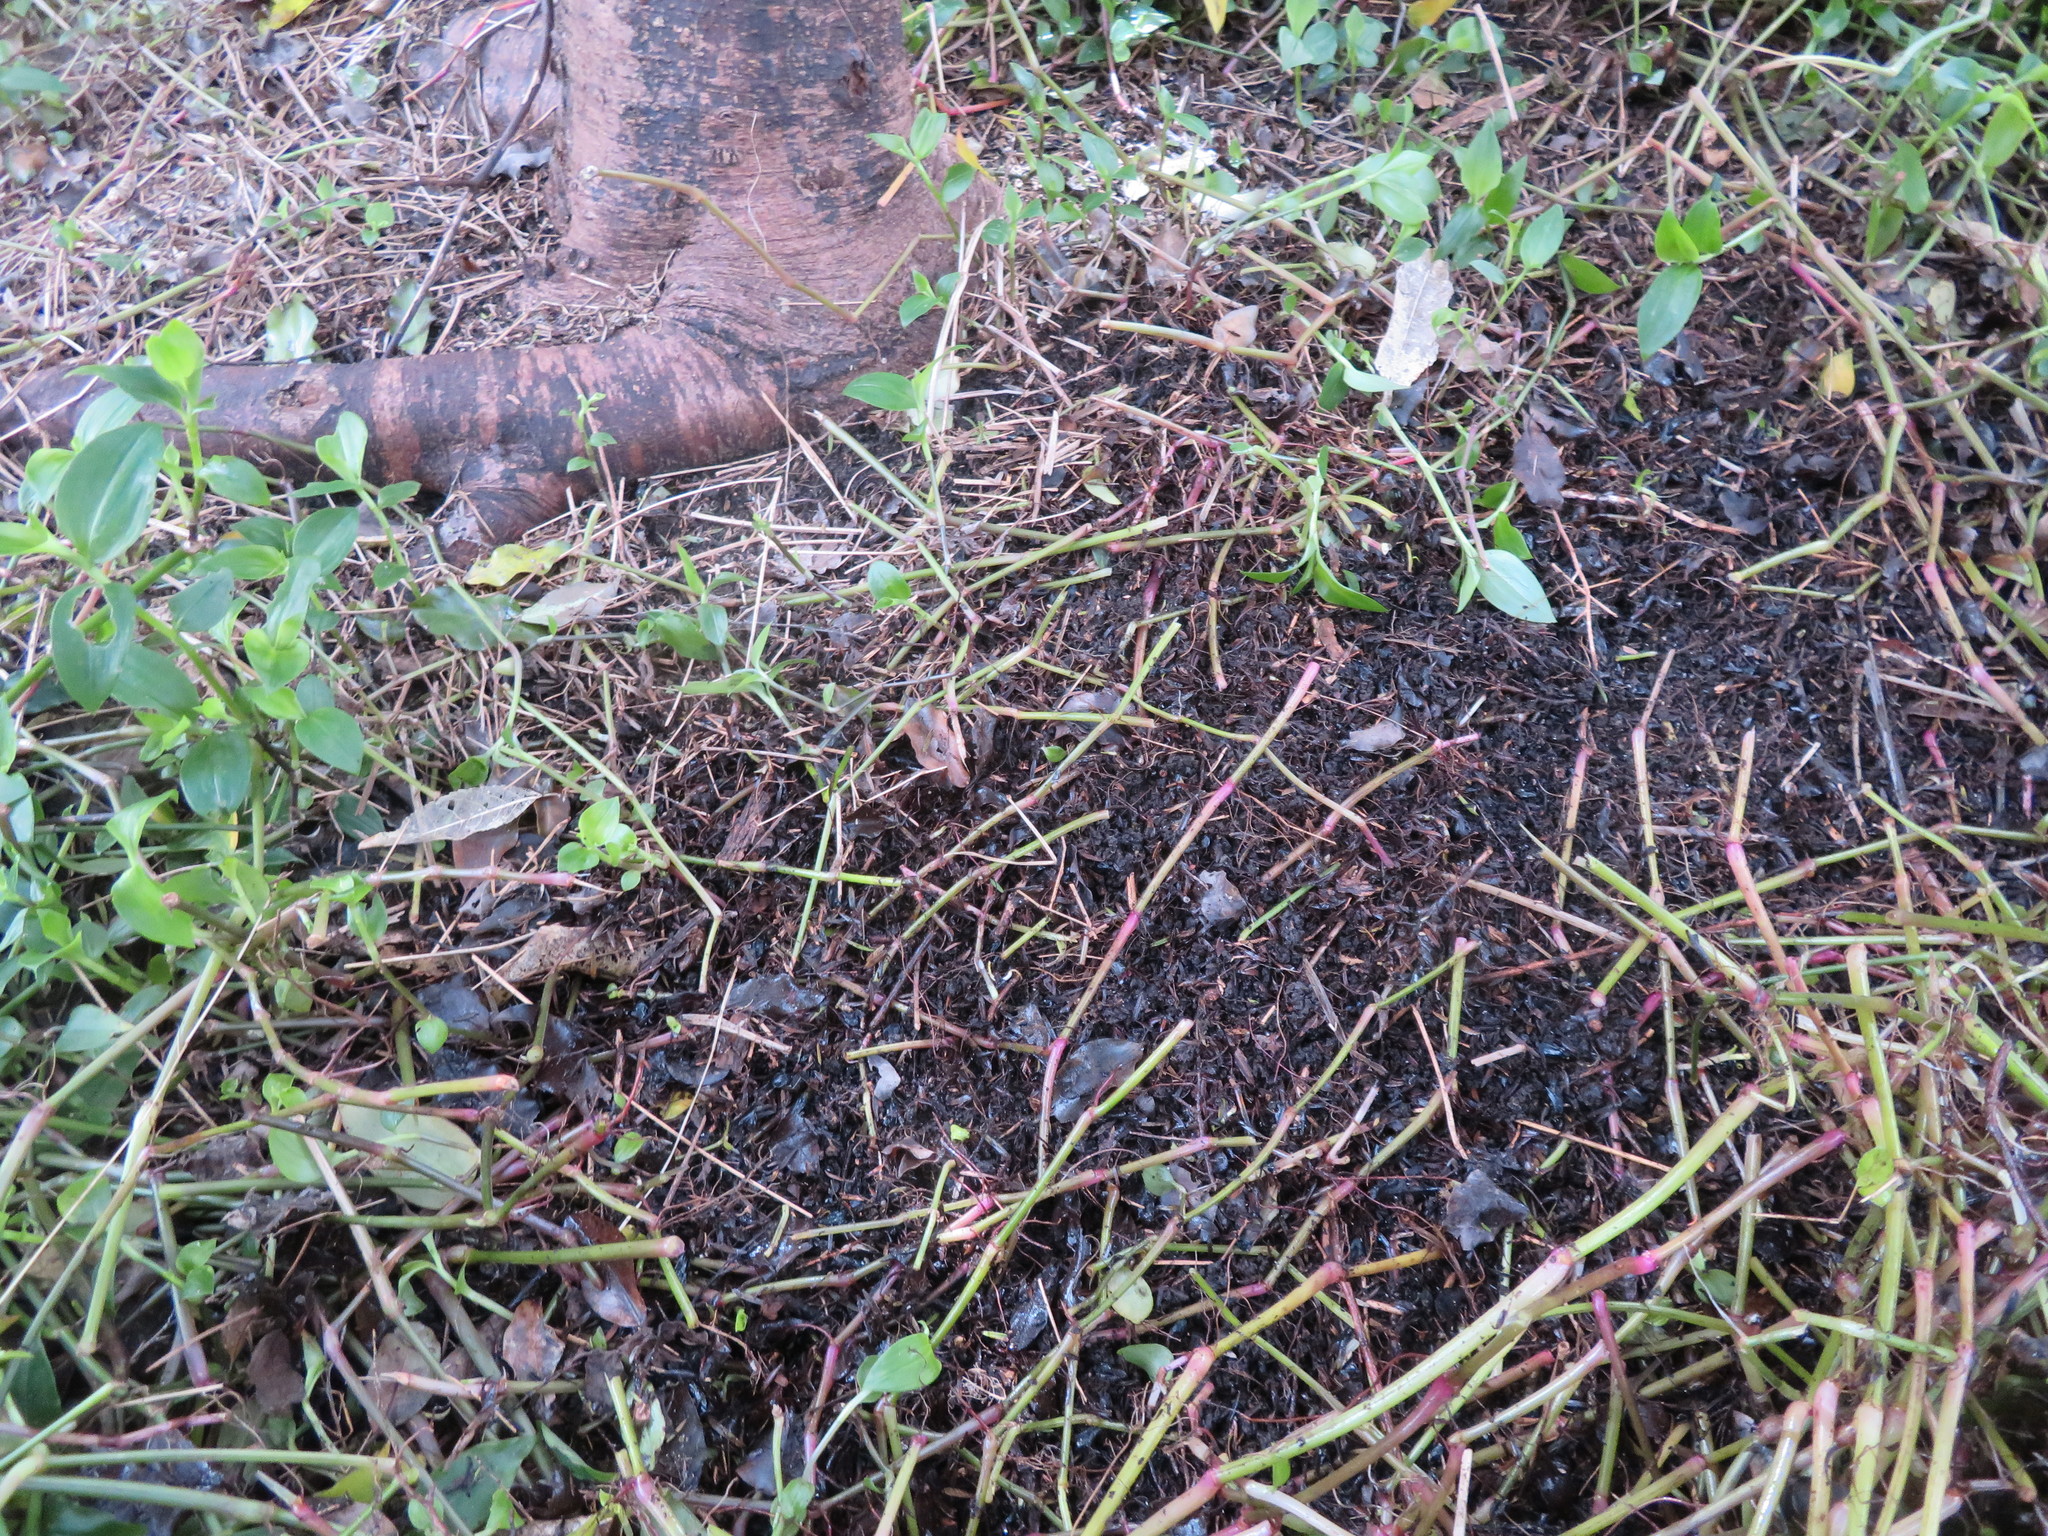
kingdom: Plantae
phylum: Tracheophyta
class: Liliopsida
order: Commelinales
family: Commelinaceae
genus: Tradescantia
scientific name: Tradescantia fluminensis
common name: Wandering-jew
